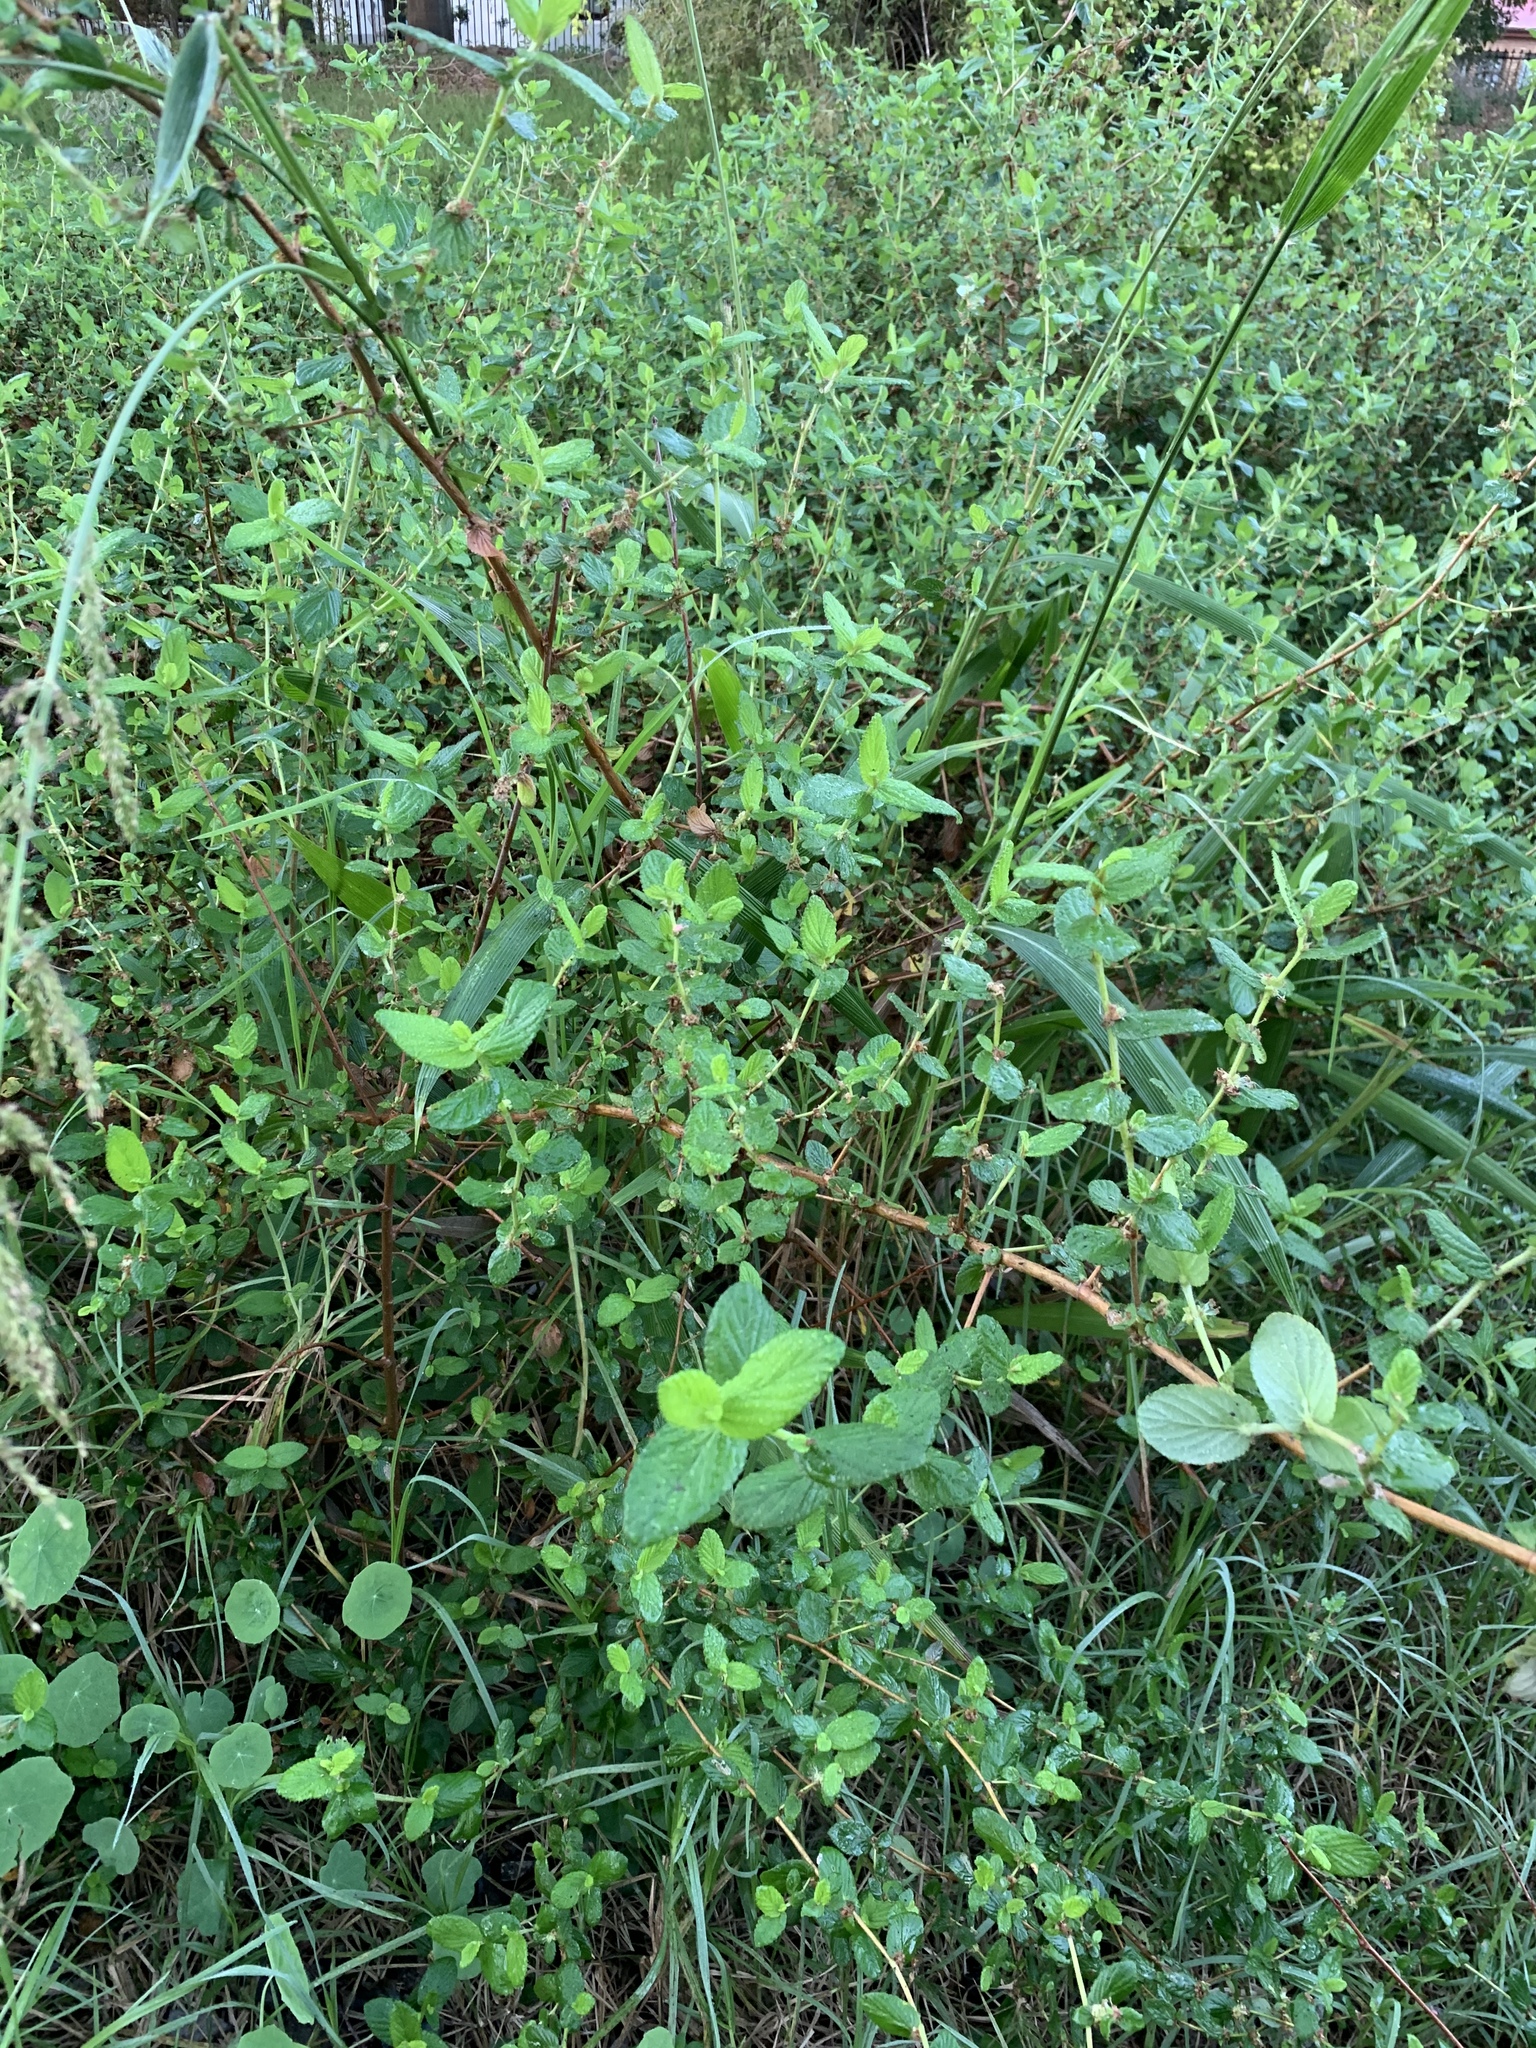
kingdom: Plantae
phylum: Tracheophyta
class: Magnoliopsida
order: Rosales
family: Rosaceae
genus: Cliffortia
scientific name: Cliffortia odorata
